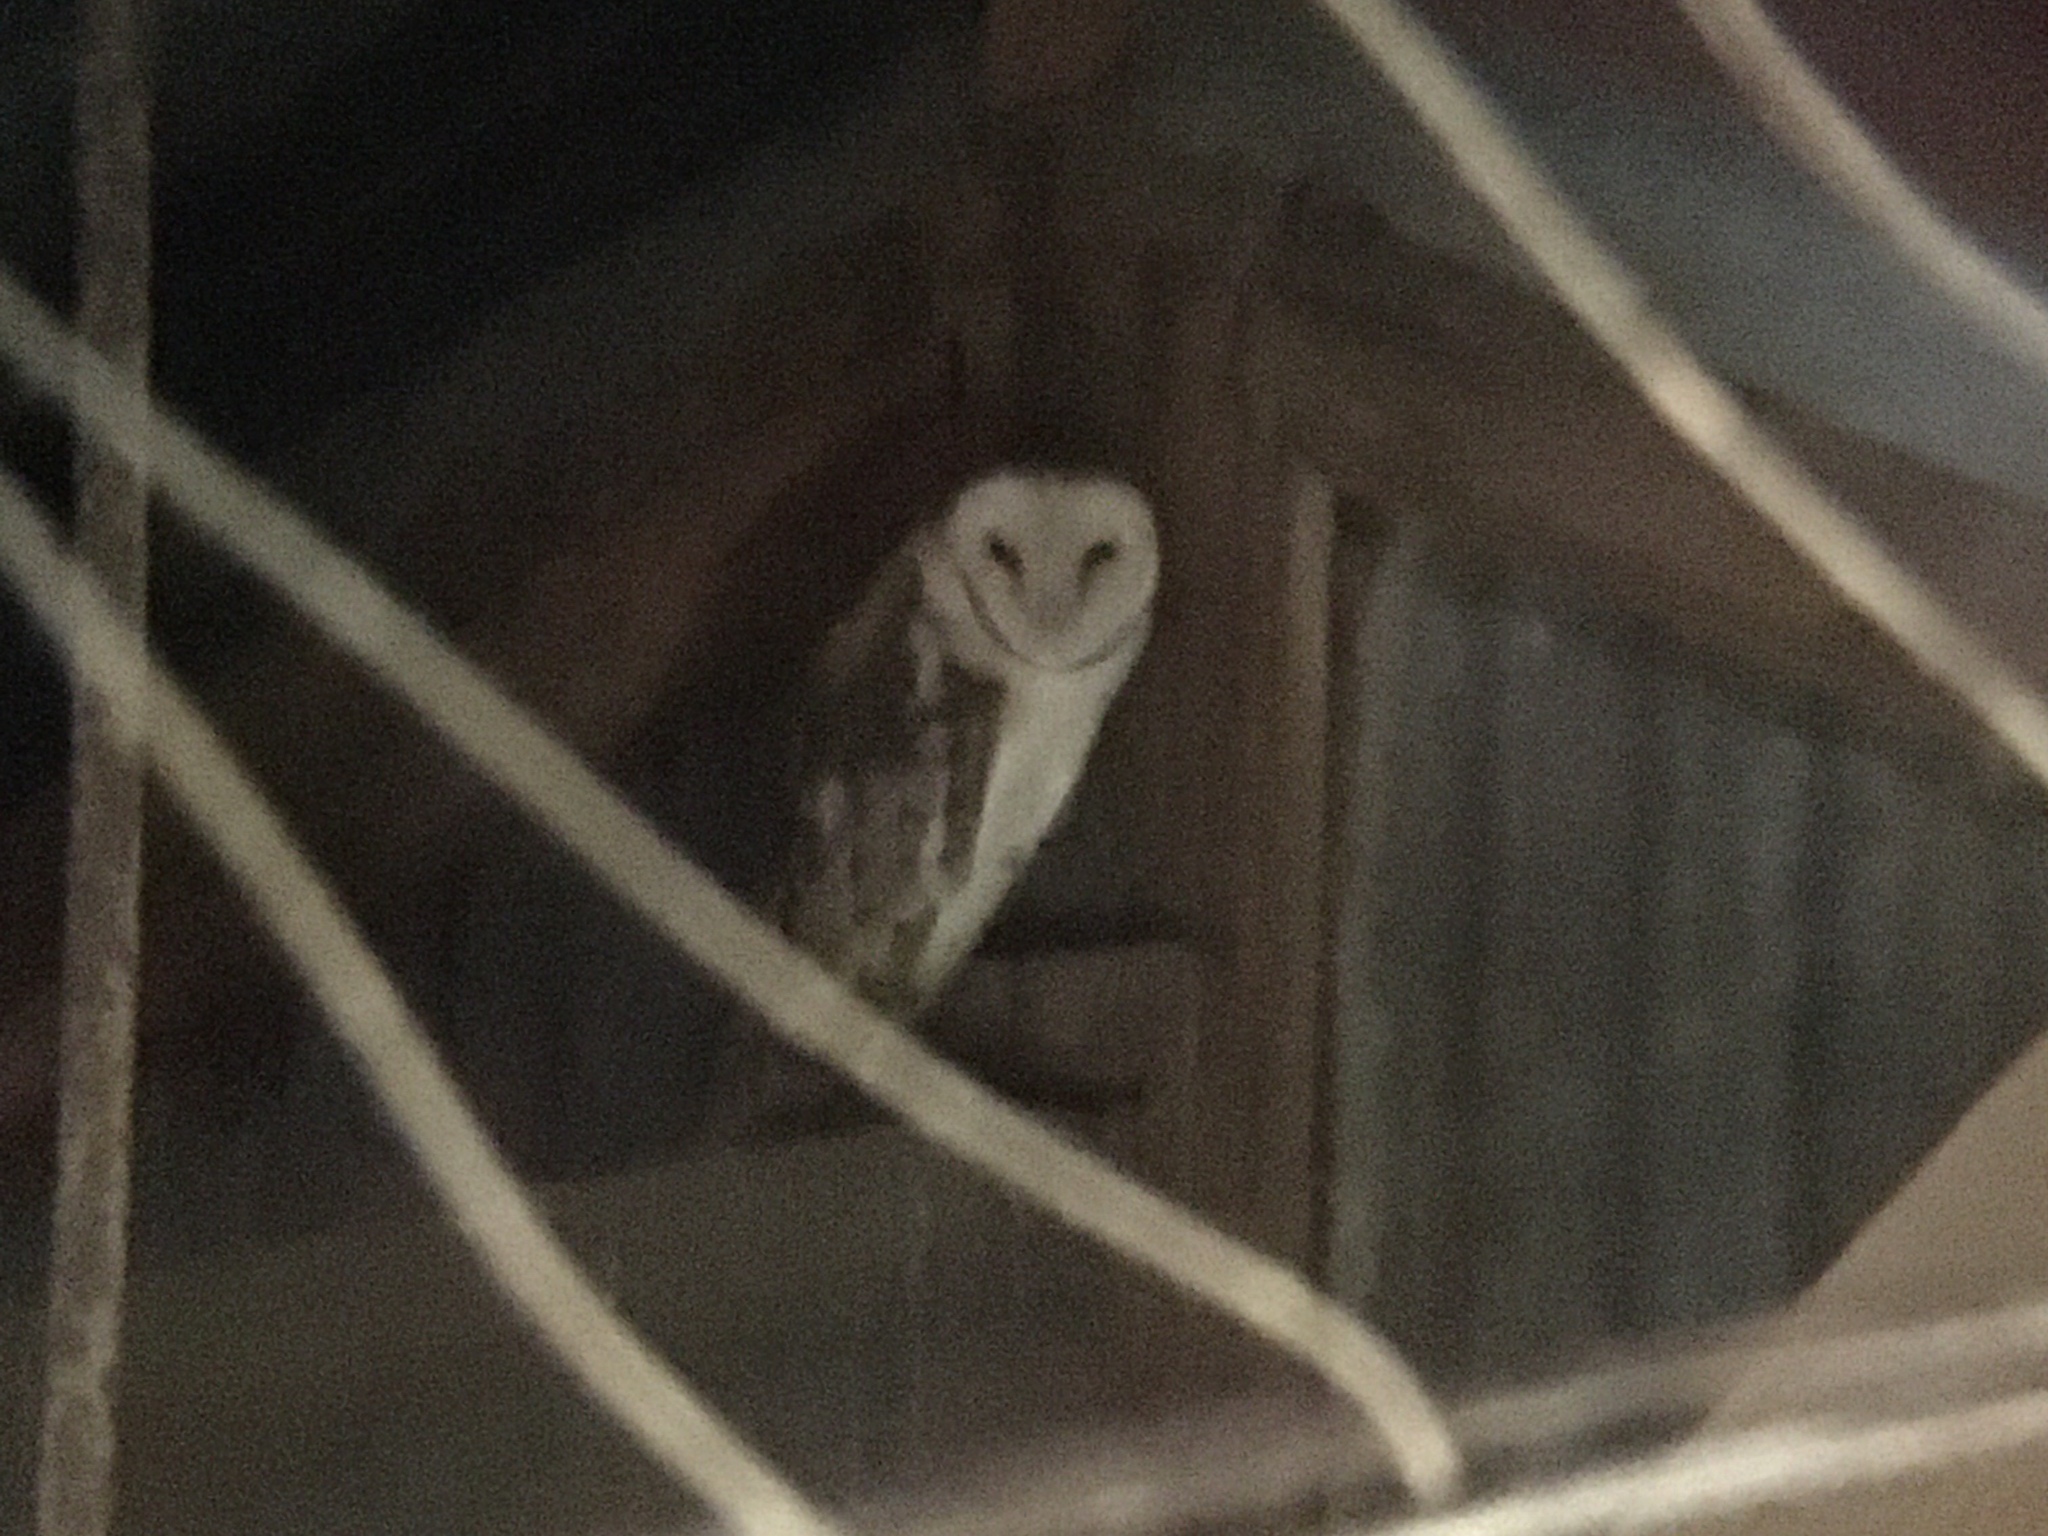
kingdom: Animalia
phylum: Chordata
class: Aves
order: Strigiformes
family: Tytonidae
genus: Tyto
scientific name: Tyto furcata
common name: American barn owl
